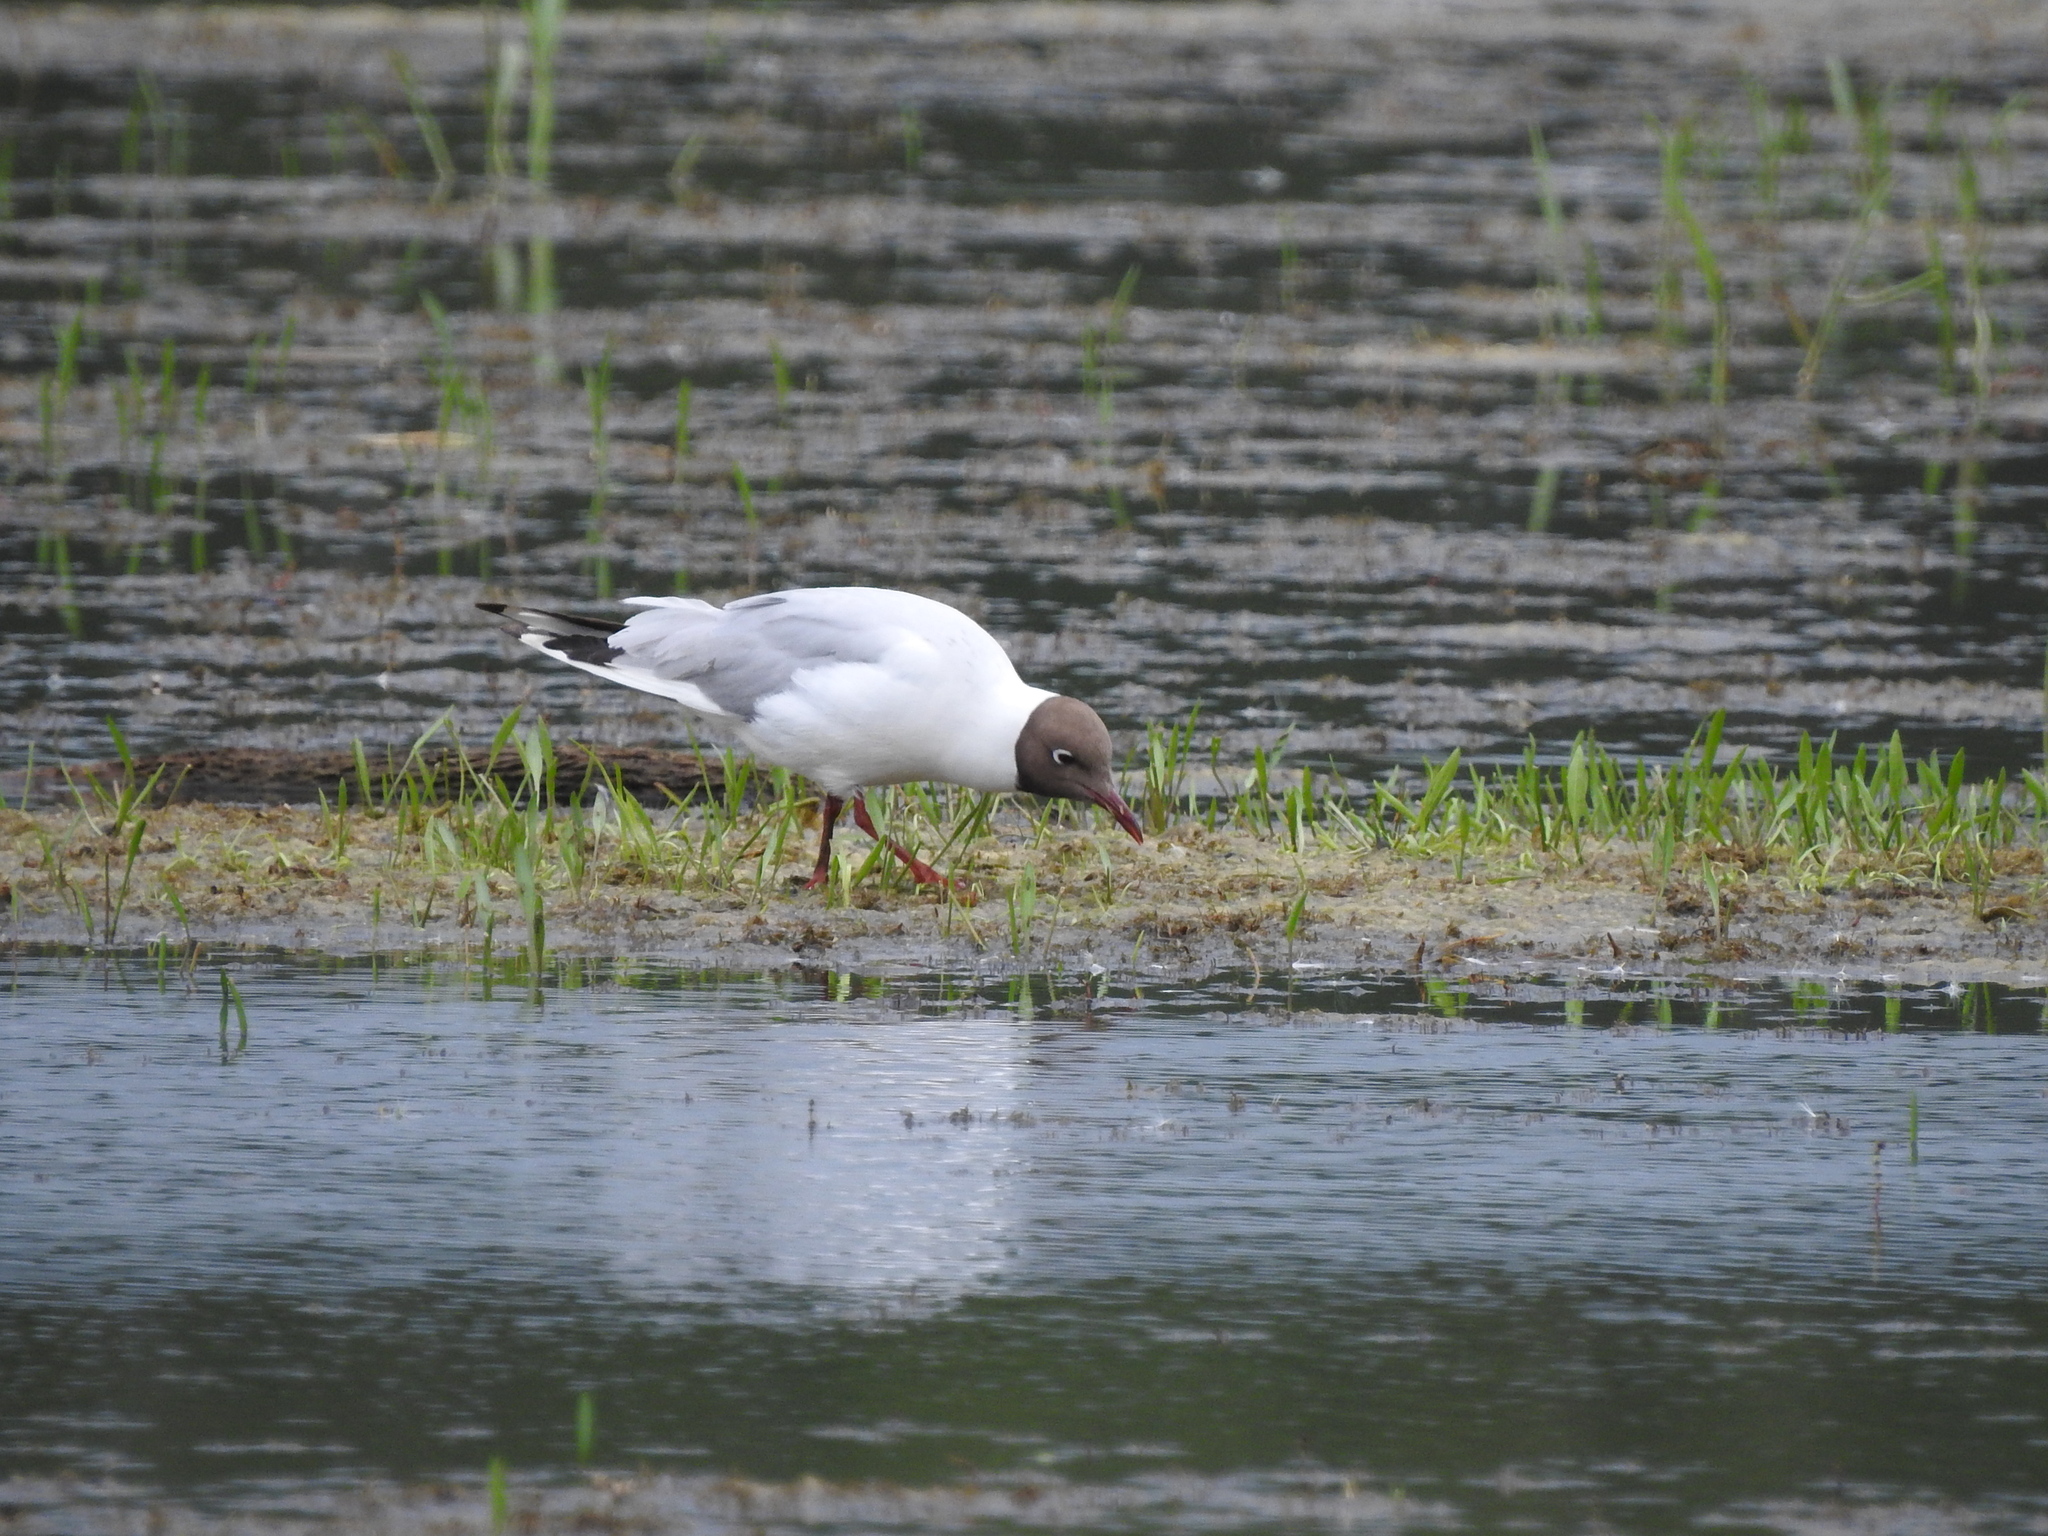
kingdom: Animalia
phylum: Chordata
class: Aves
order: Charadriiformes
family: Laridae
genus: Chroicocephalus
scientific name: Chroicocephalus ridibundus
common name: Black-headed gull
